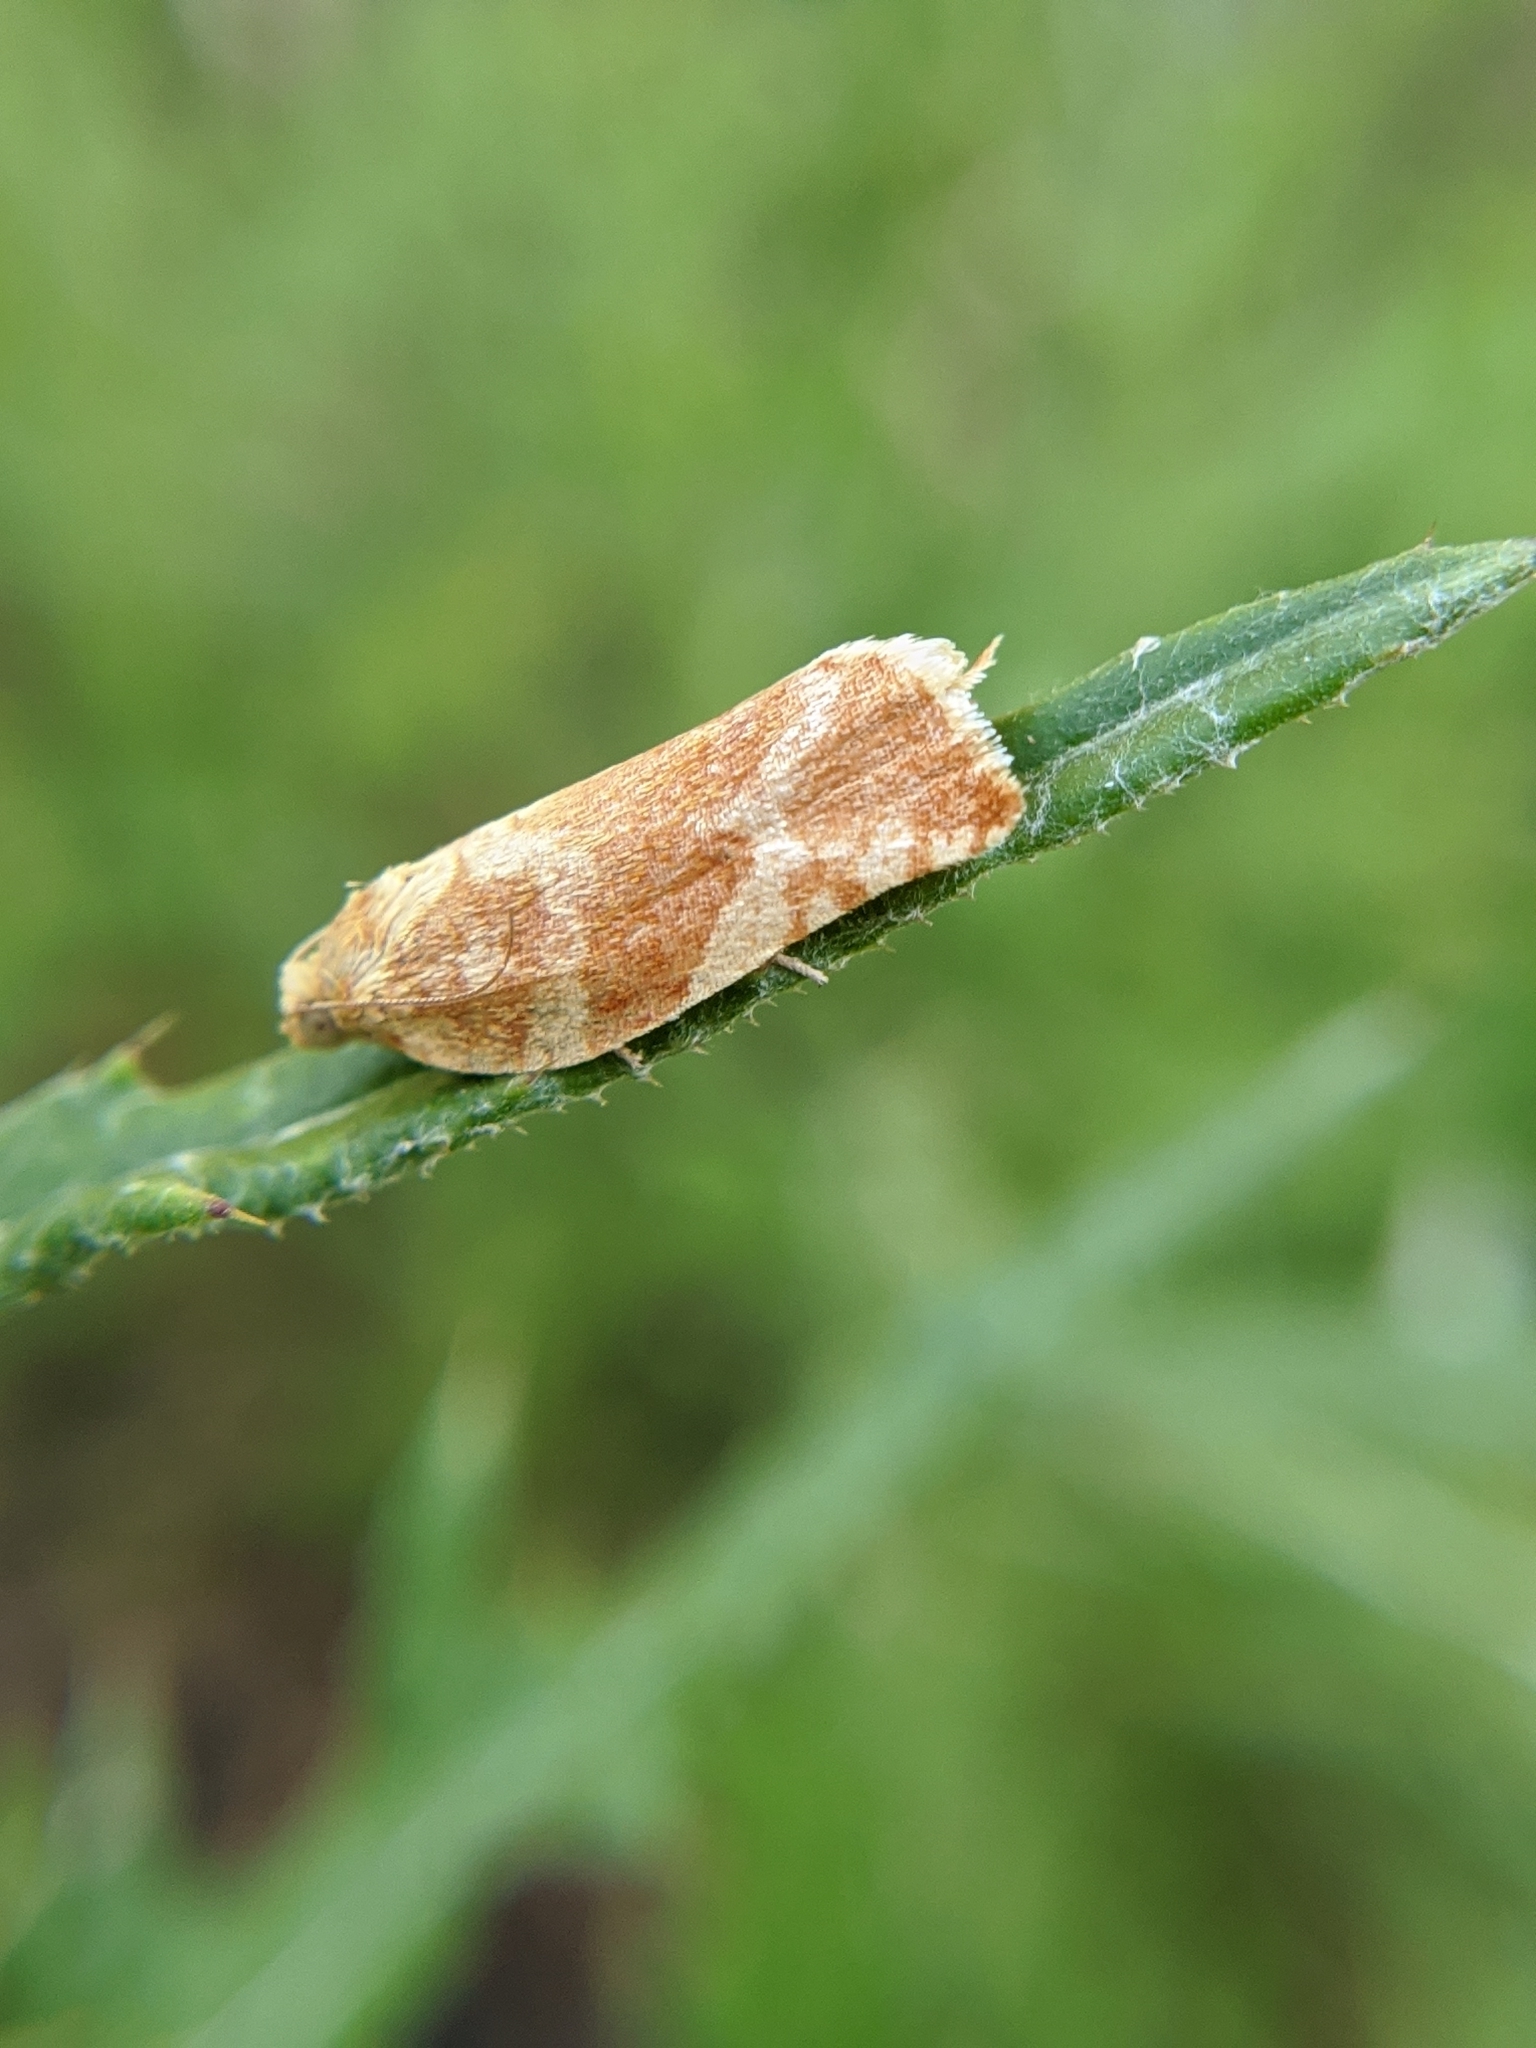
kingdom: Animalia
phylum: Arthropoda
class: Insecta
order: Lepidoptera
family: Tortricidae
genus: Archips
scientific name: Archips semiferanus
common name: Oak leafroller
